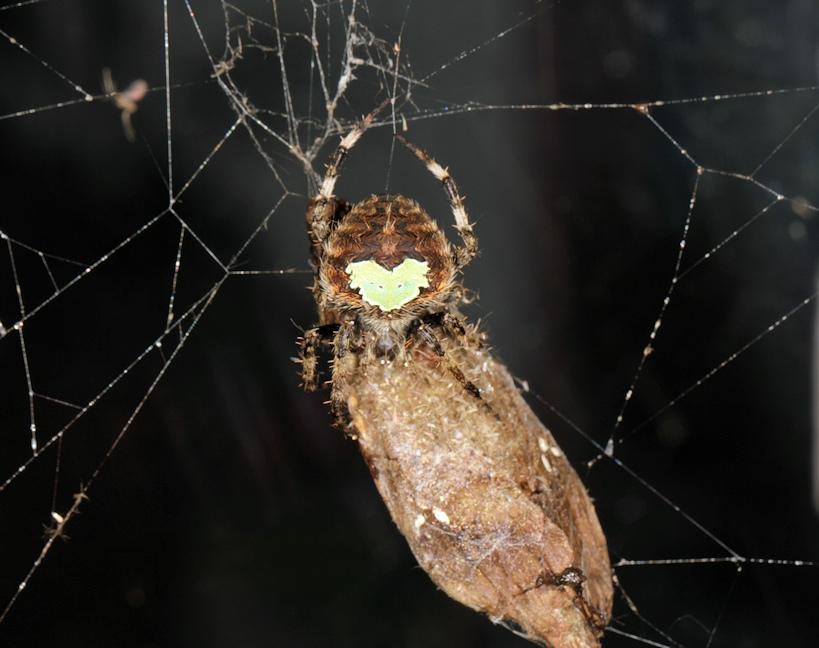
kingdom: Animalia
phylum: Arthropoda
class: Insecta
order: Lepidoptera
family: Sphingidae
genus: Nephele
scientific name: Nephele peneus
